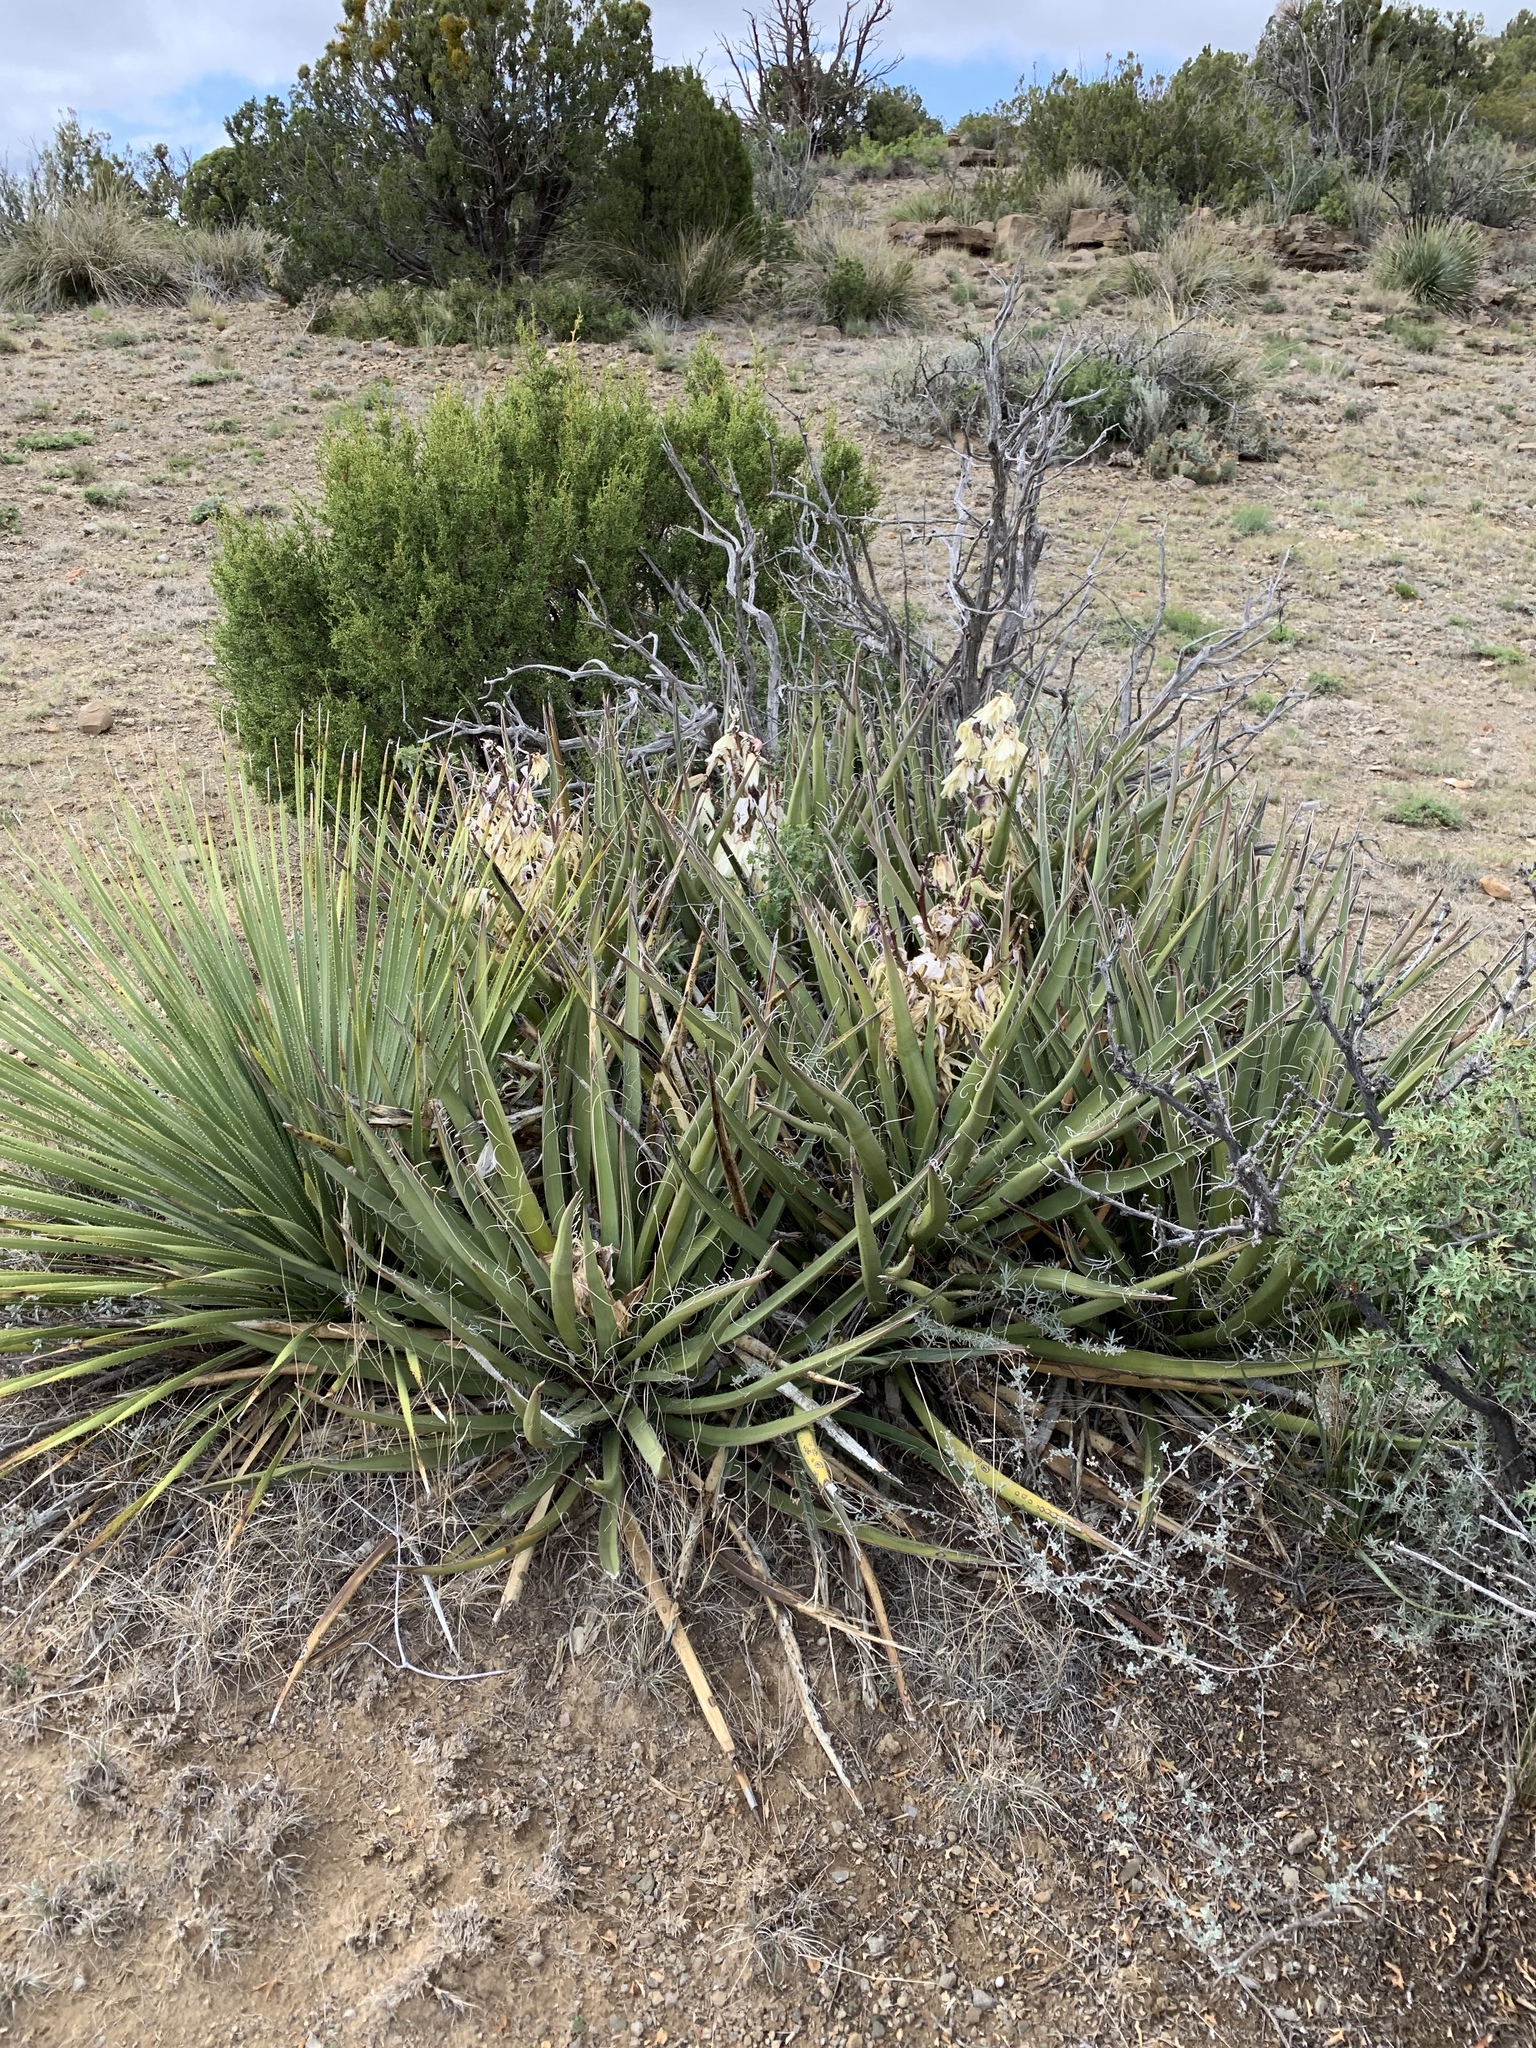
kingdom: Plantae
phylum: Tracheophyta
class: Liliopsida
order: Asparagales
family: Asparagaceae
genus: Yucca
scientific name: Yucca baccata
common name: Banana yucca
